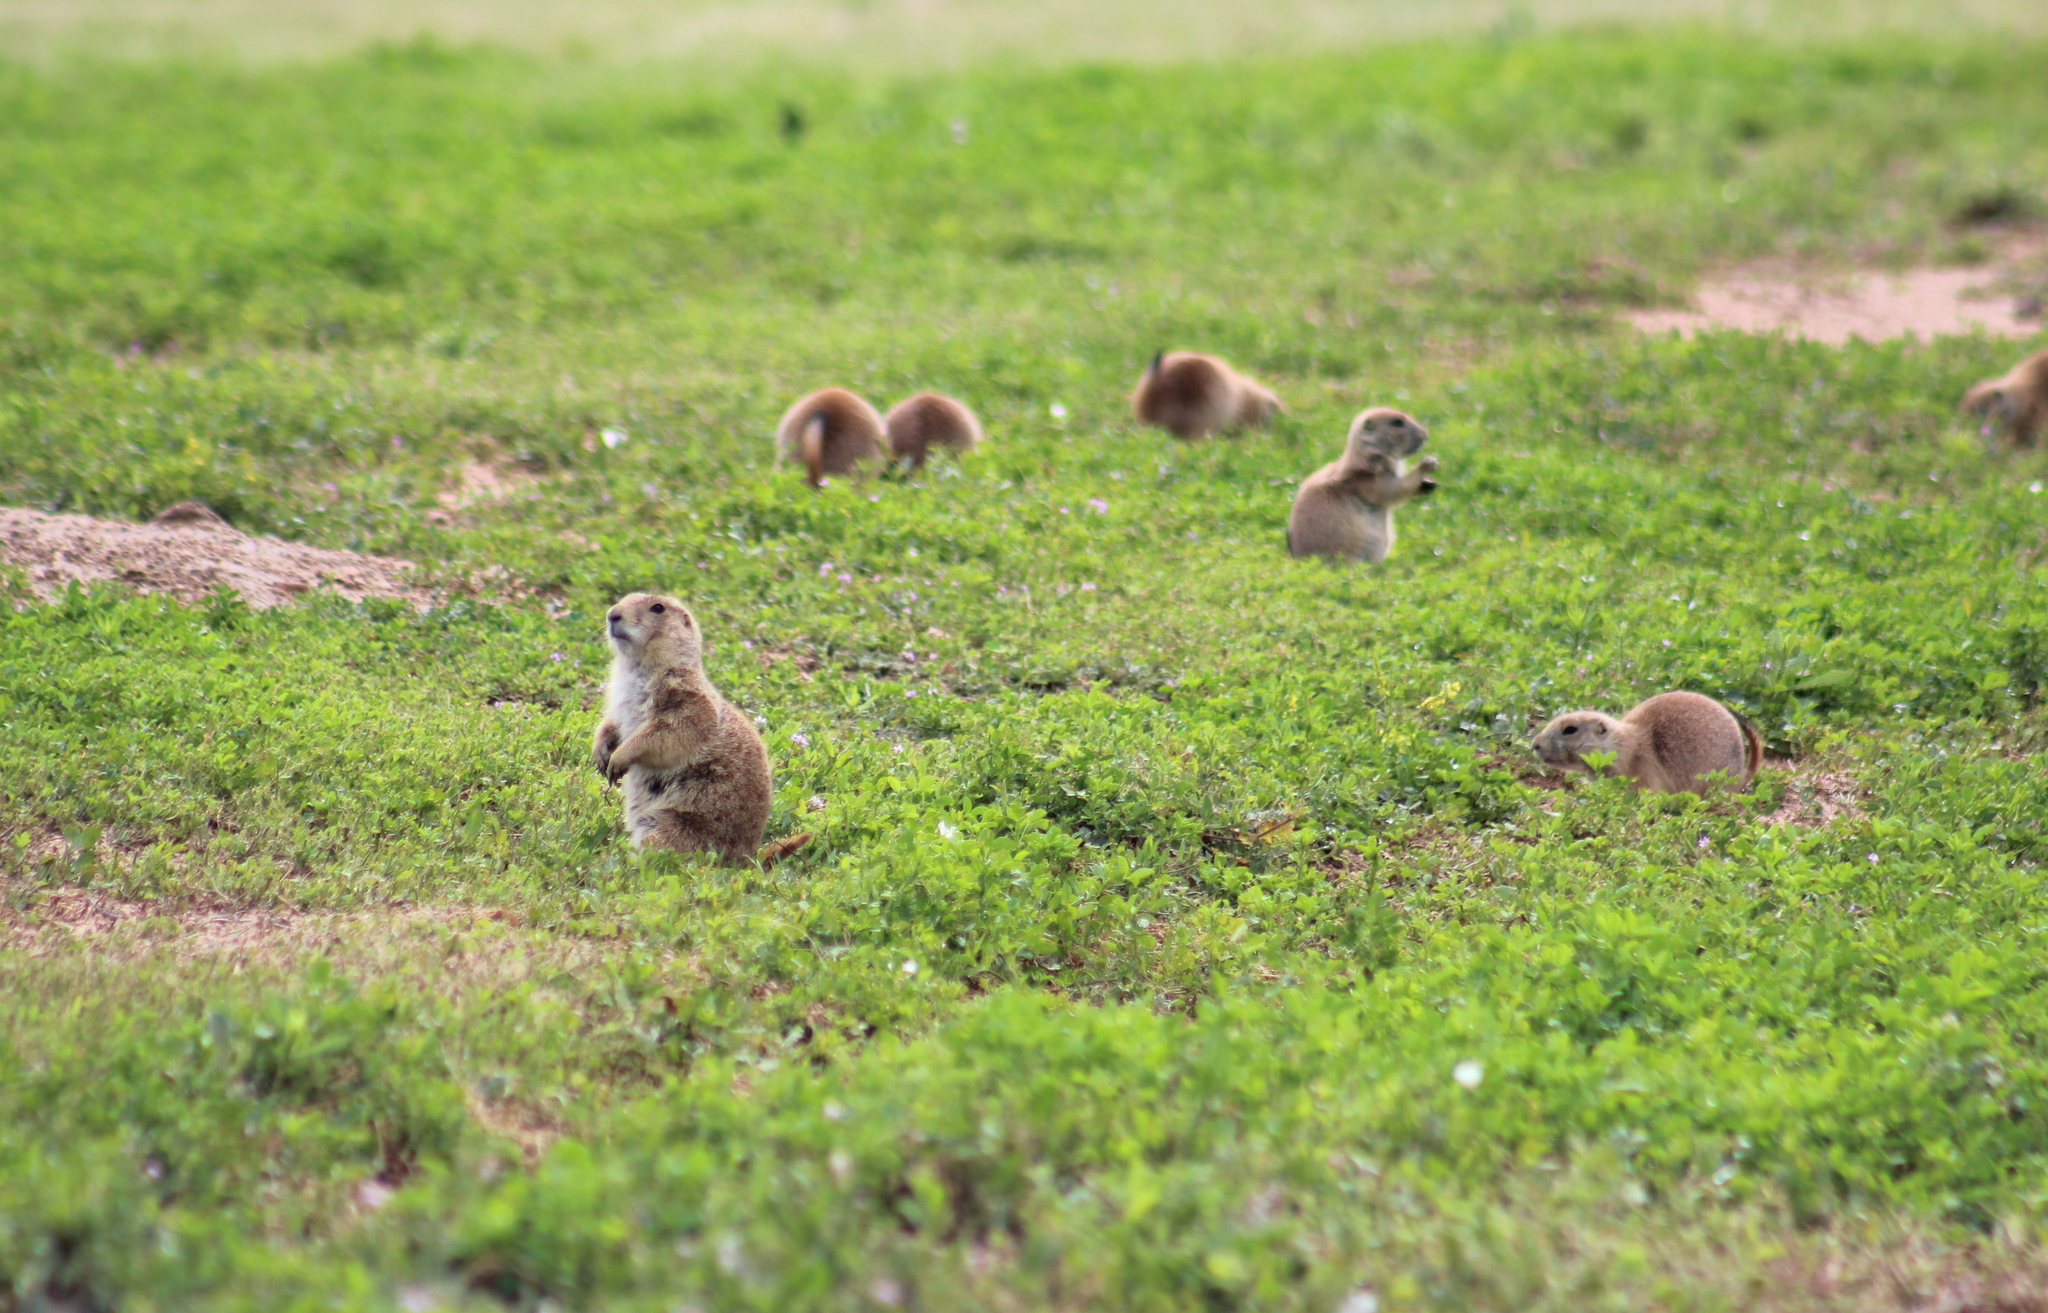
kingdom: Animalia
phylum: Chordata
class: Mammalia
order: Rodentia
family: Sciuridae
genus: Cynomys
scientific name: Cynomys ludovicianus
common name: Black-tailed prairie dog
